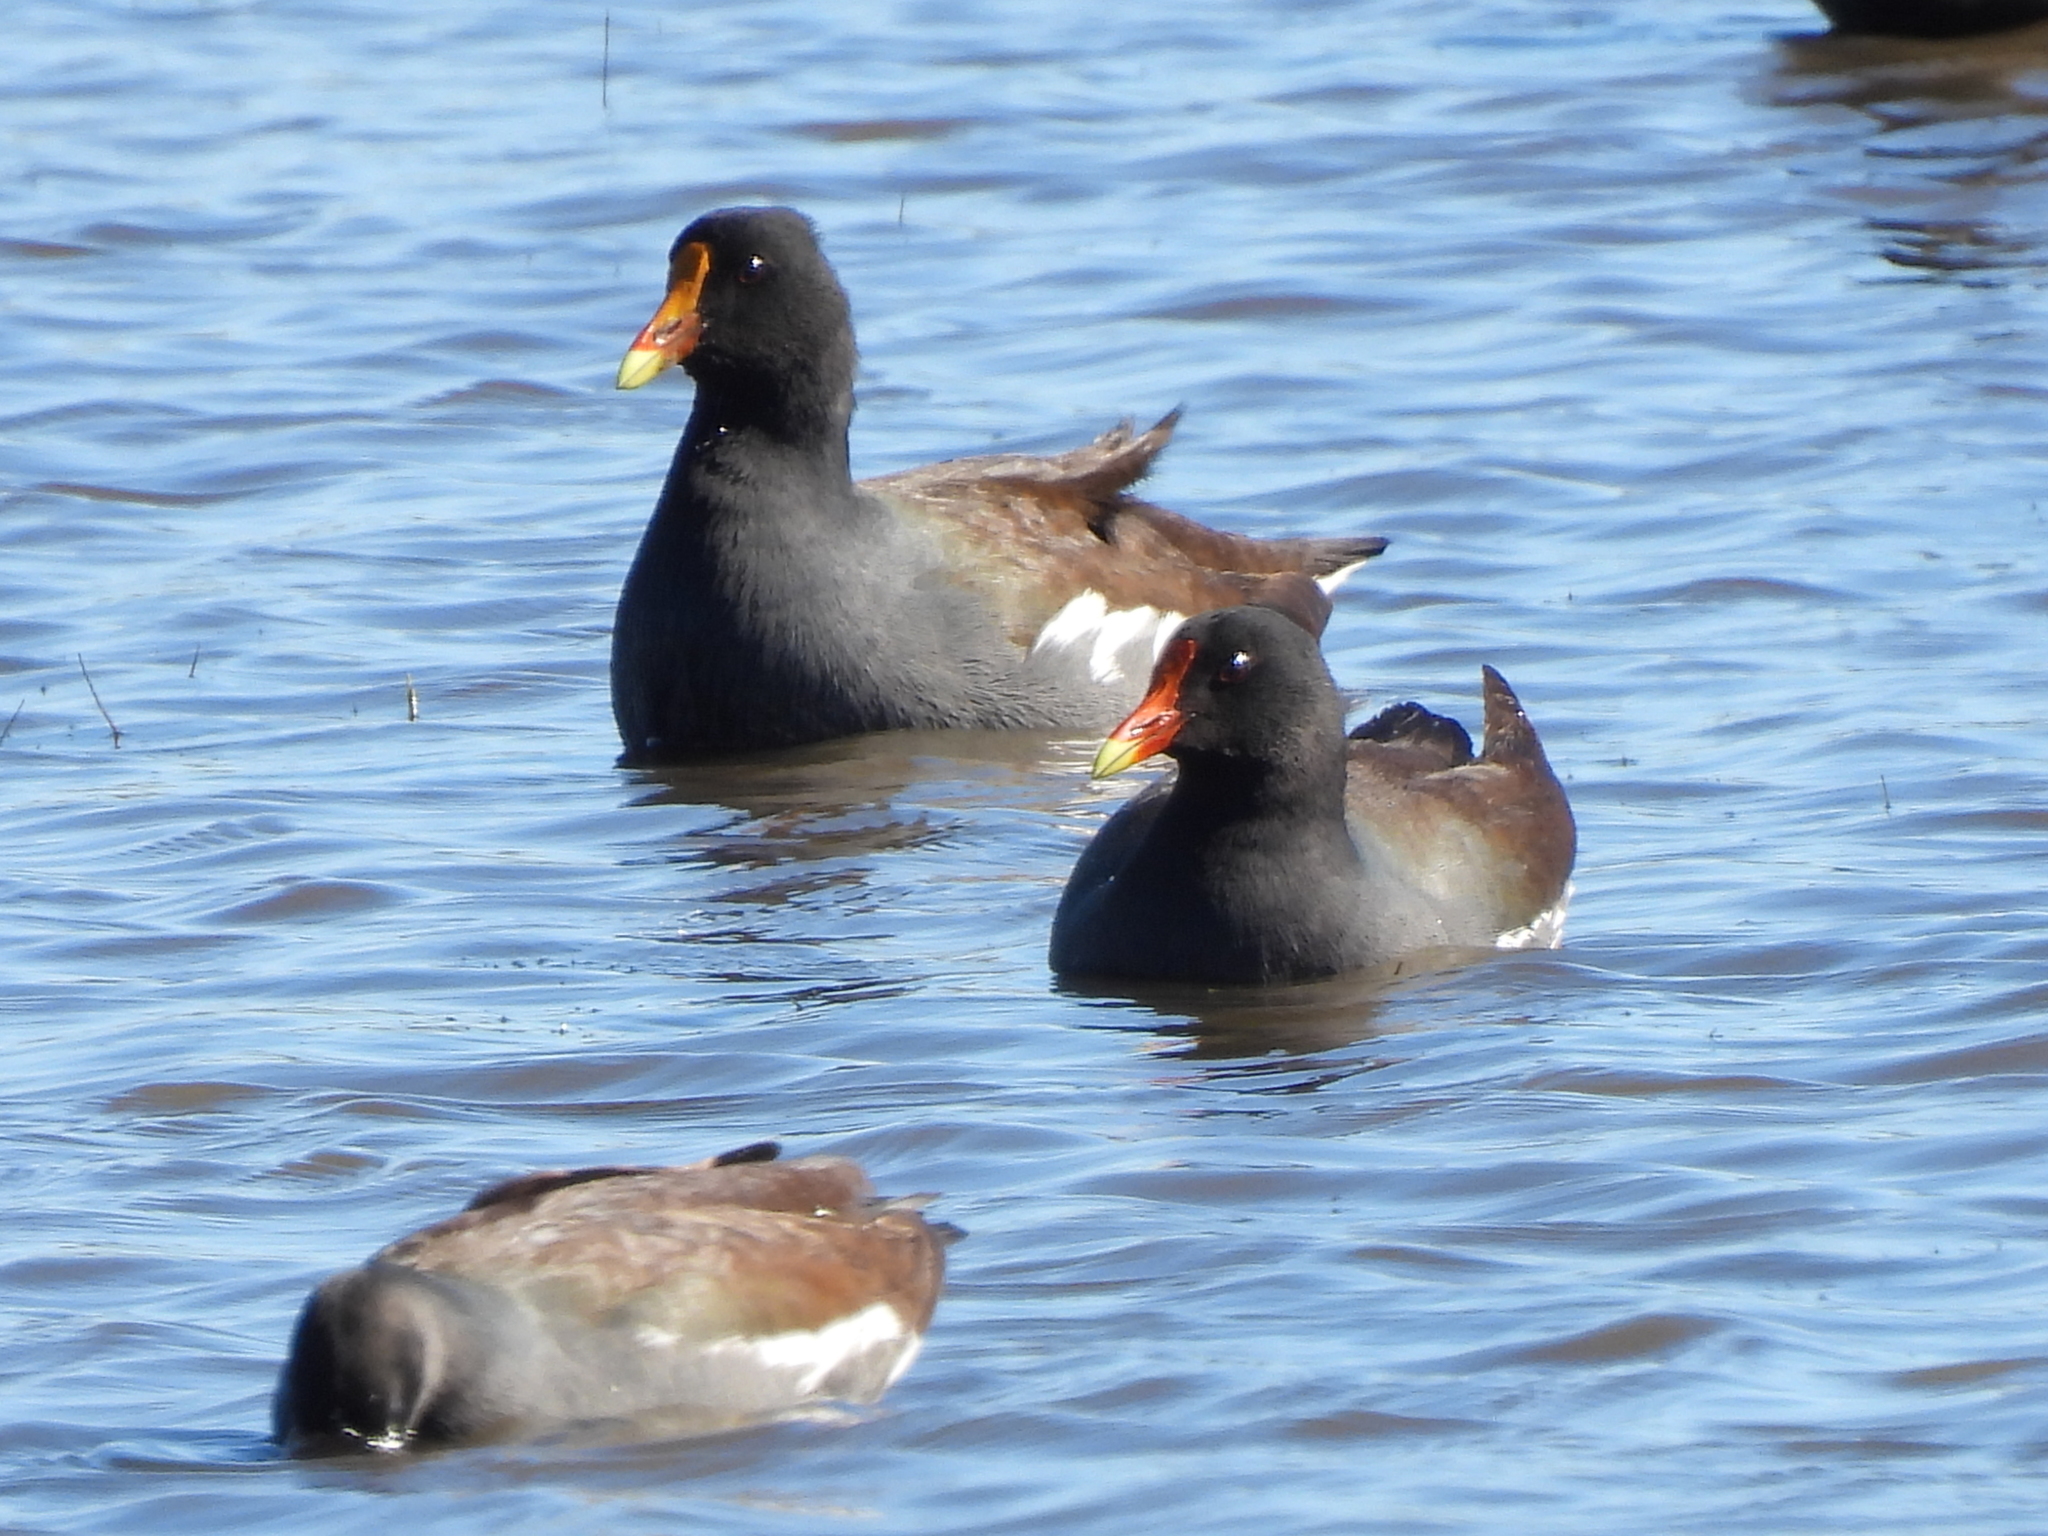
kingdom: Animalia
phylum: Chordata
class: Aves
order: Gruiformes
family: Rallidae
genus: Gallinula
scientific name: Gallinula chloropus
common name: Common moorhen
